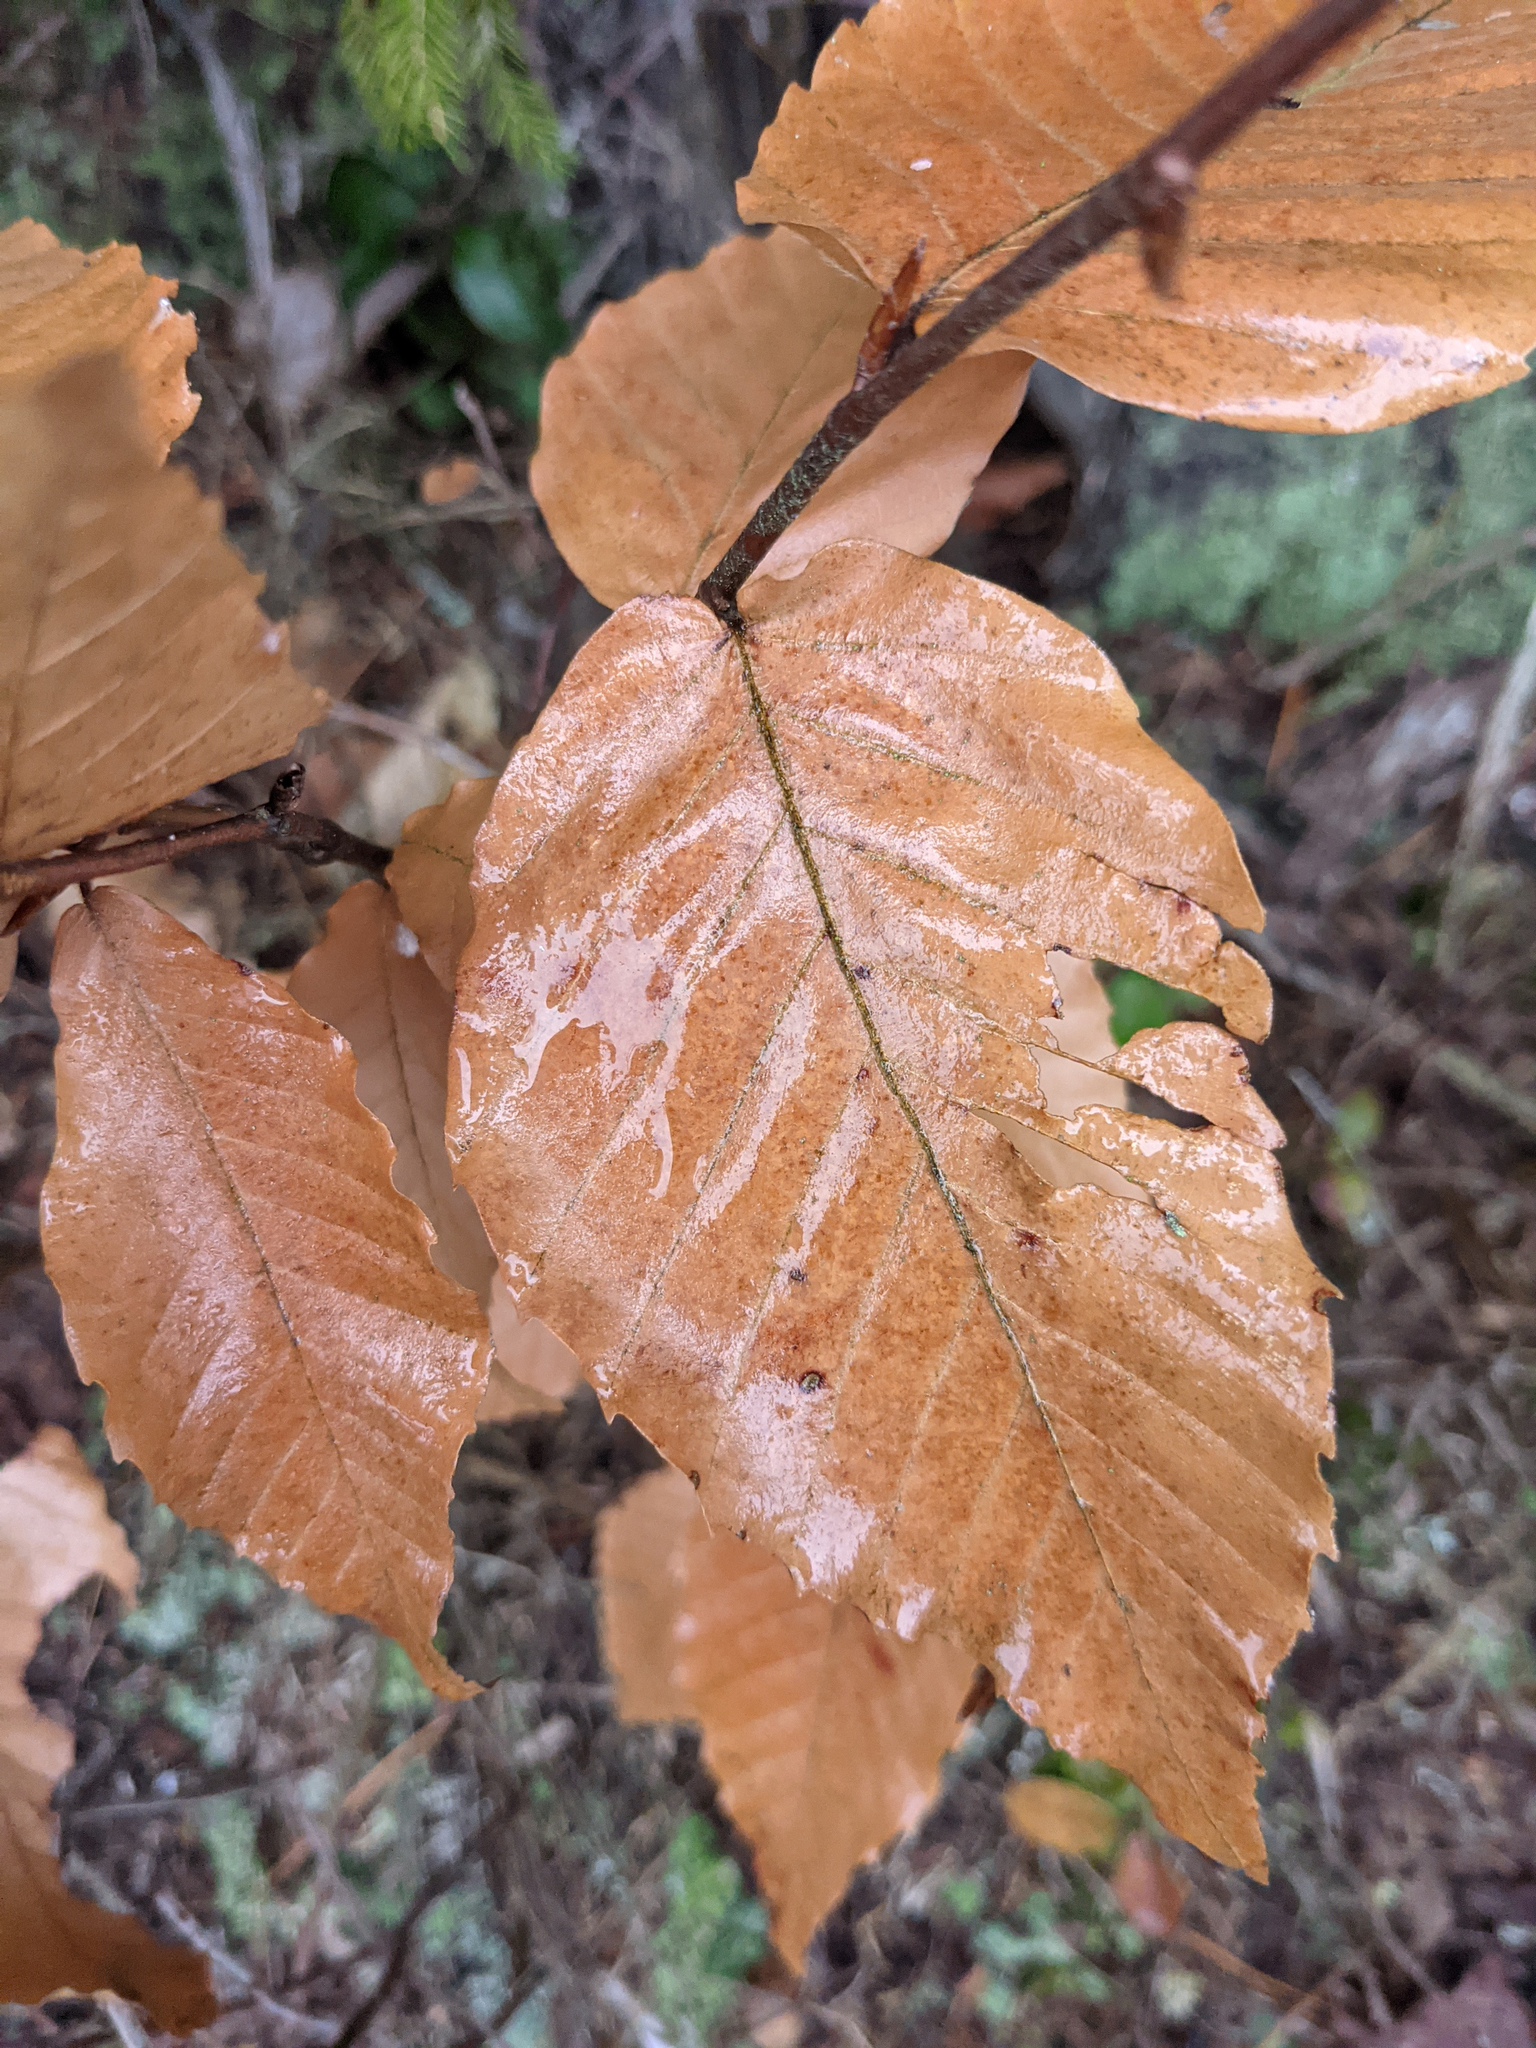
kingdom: Plantae
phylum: Tracheophyta
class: Magnoliopsida
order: Fagales
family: Fagaceae
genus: Fagus
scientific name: Fagus grandifolia
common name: American beech
